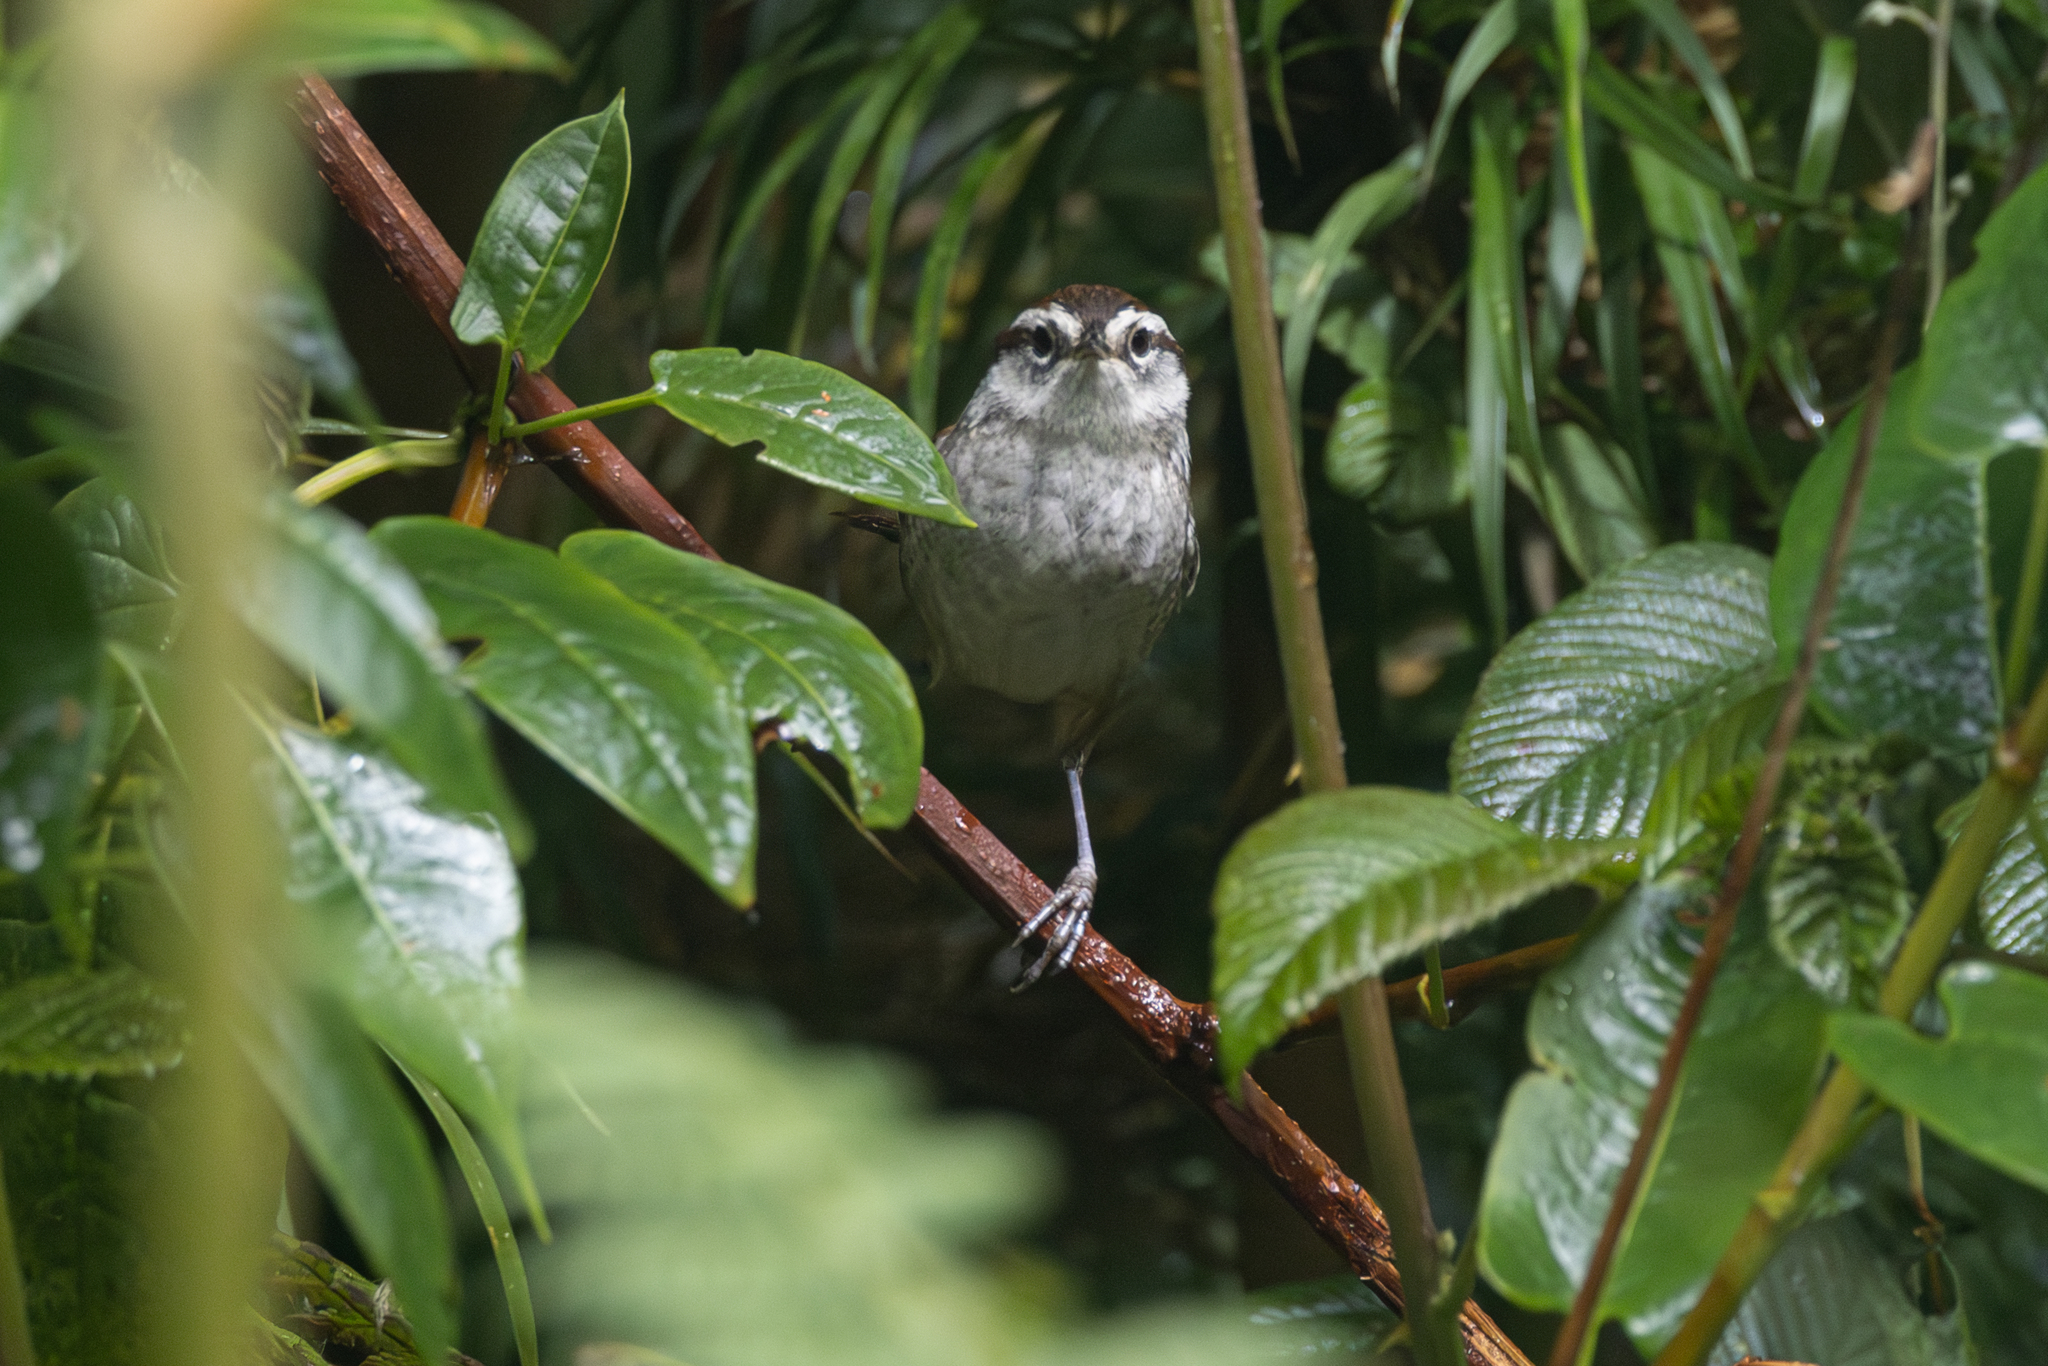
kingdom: Animalia
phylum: Chordata
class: Aves
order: Passeriformes
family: Troglodytidae
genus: Thryorchilus
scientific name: Thryorchilus browni
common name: Timberline wren
